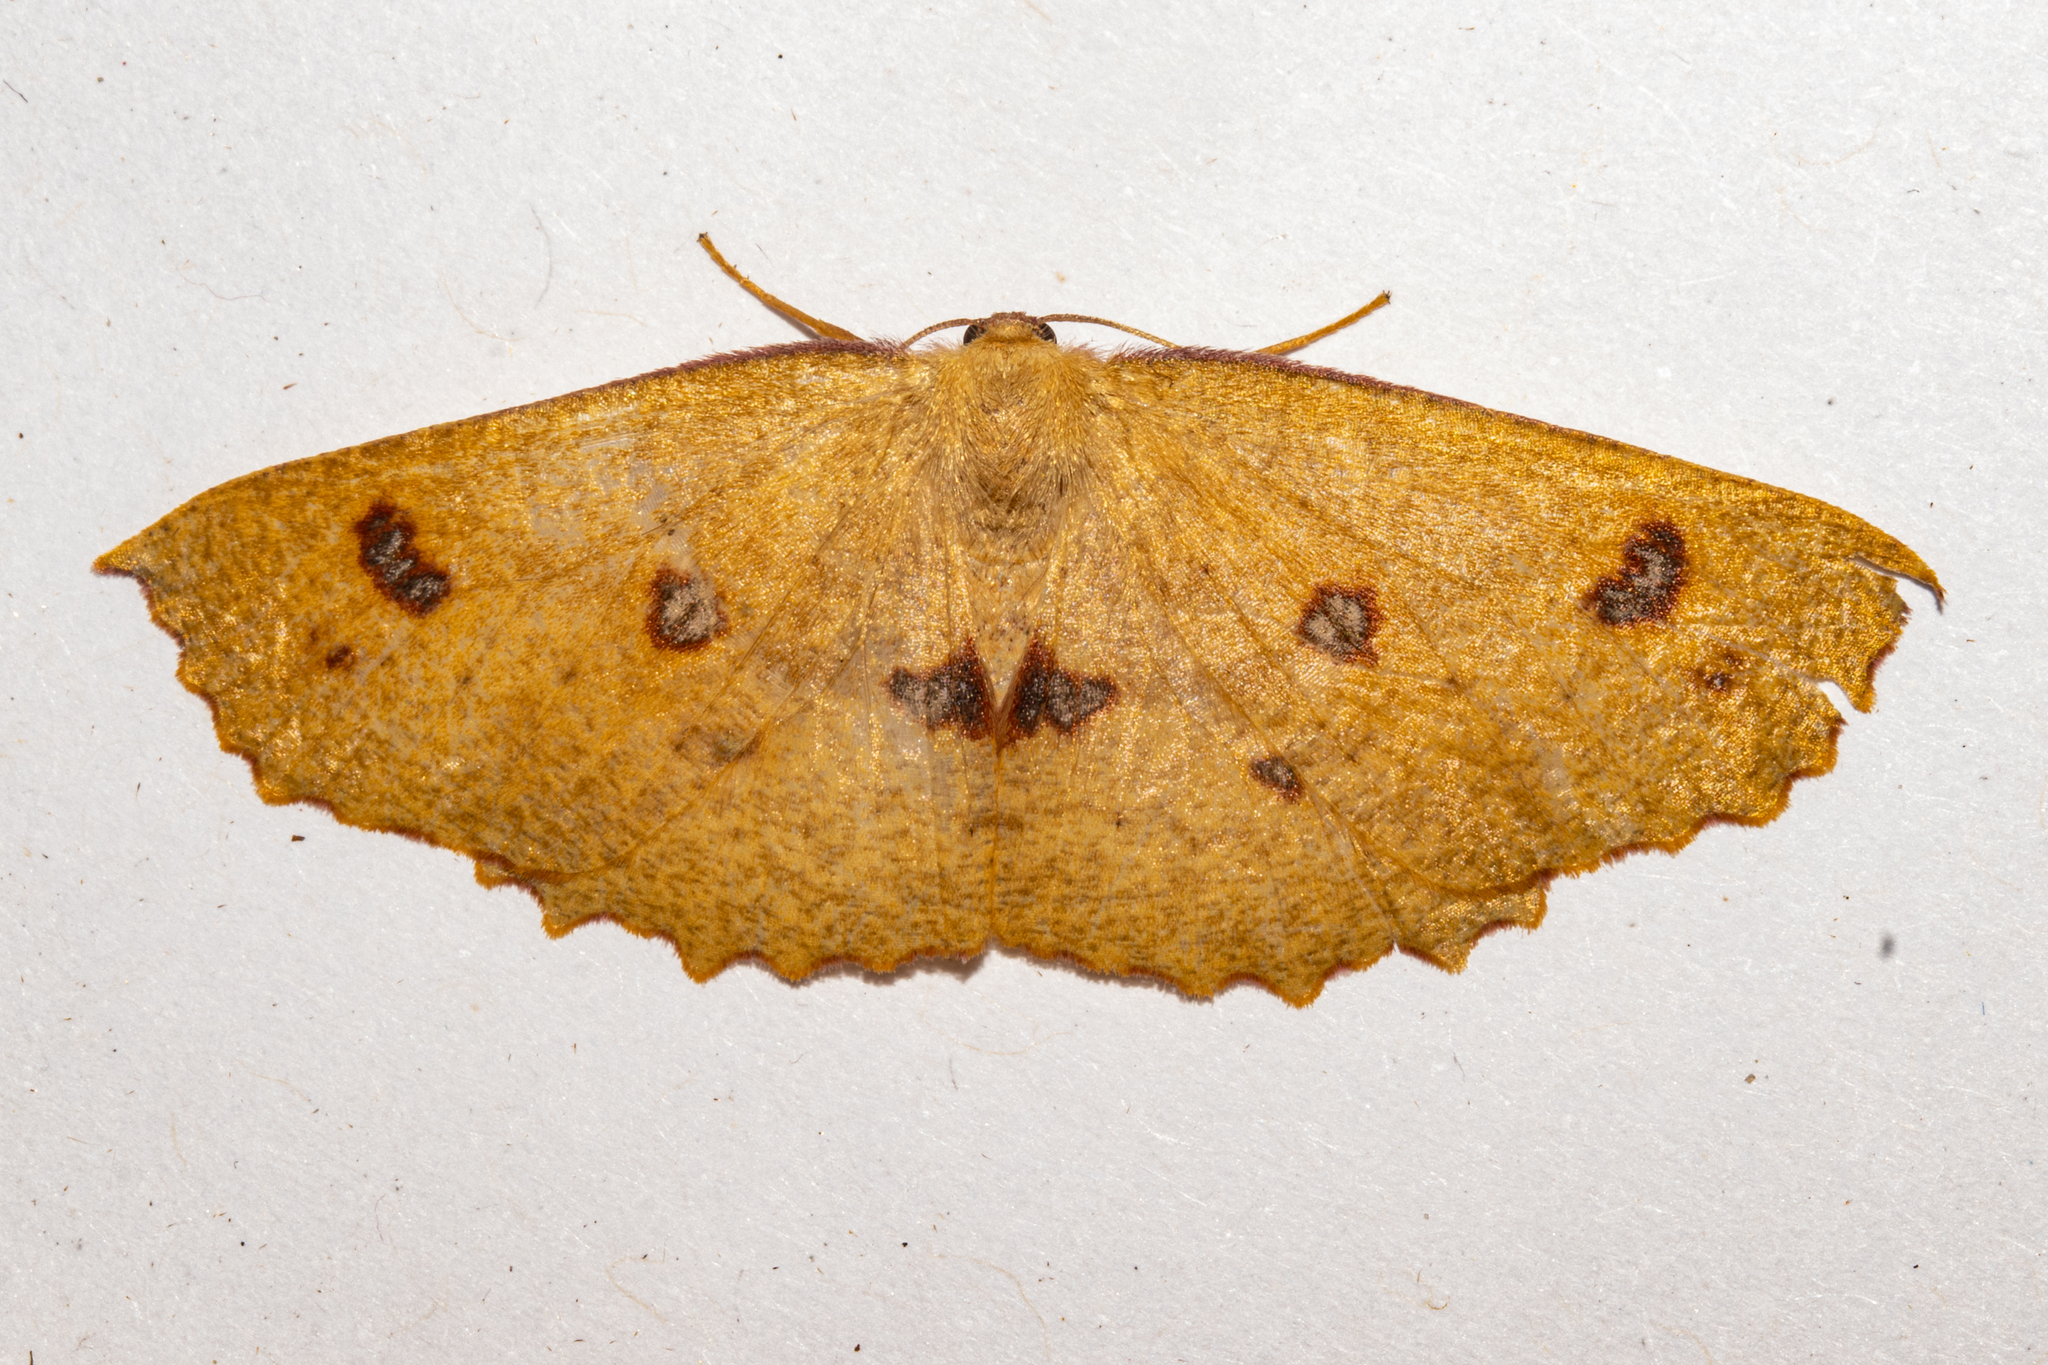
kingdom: Animalia
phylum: Arthropoda
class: Insecta
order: Lepidoptera
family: Geometridae
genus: Xyridacma
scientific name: Xyridacma alectoraria
